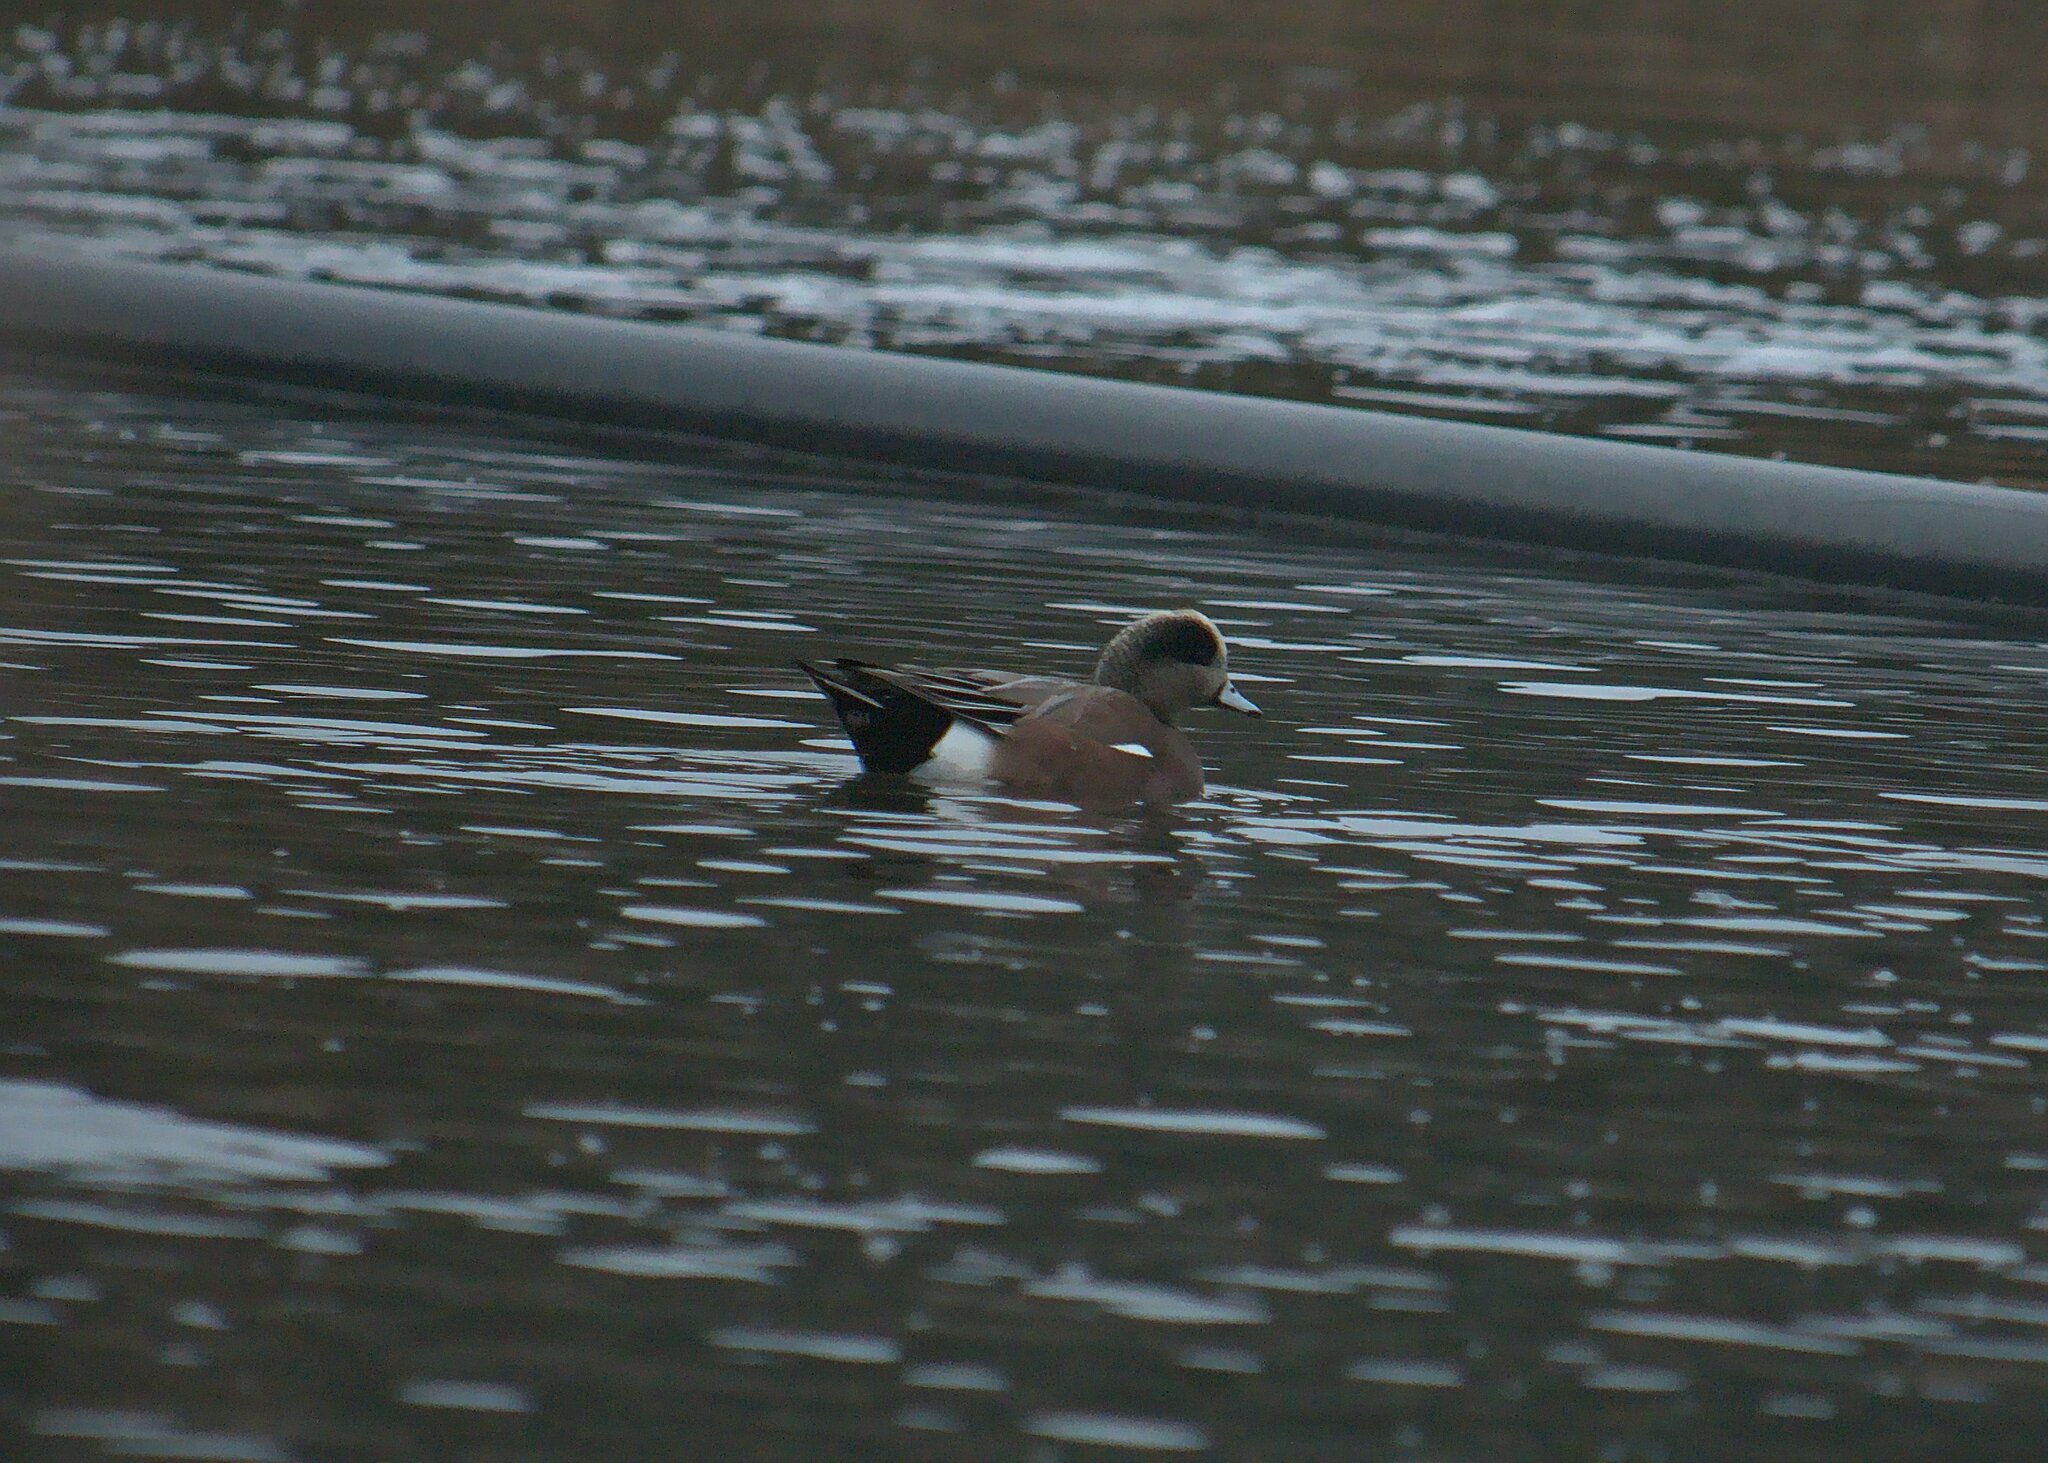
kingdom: Animalia
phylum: Chordata
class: Aves
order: Anseriformes
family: Anatidae
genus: Mareca
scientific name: Mareca americana
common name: American wigeon
